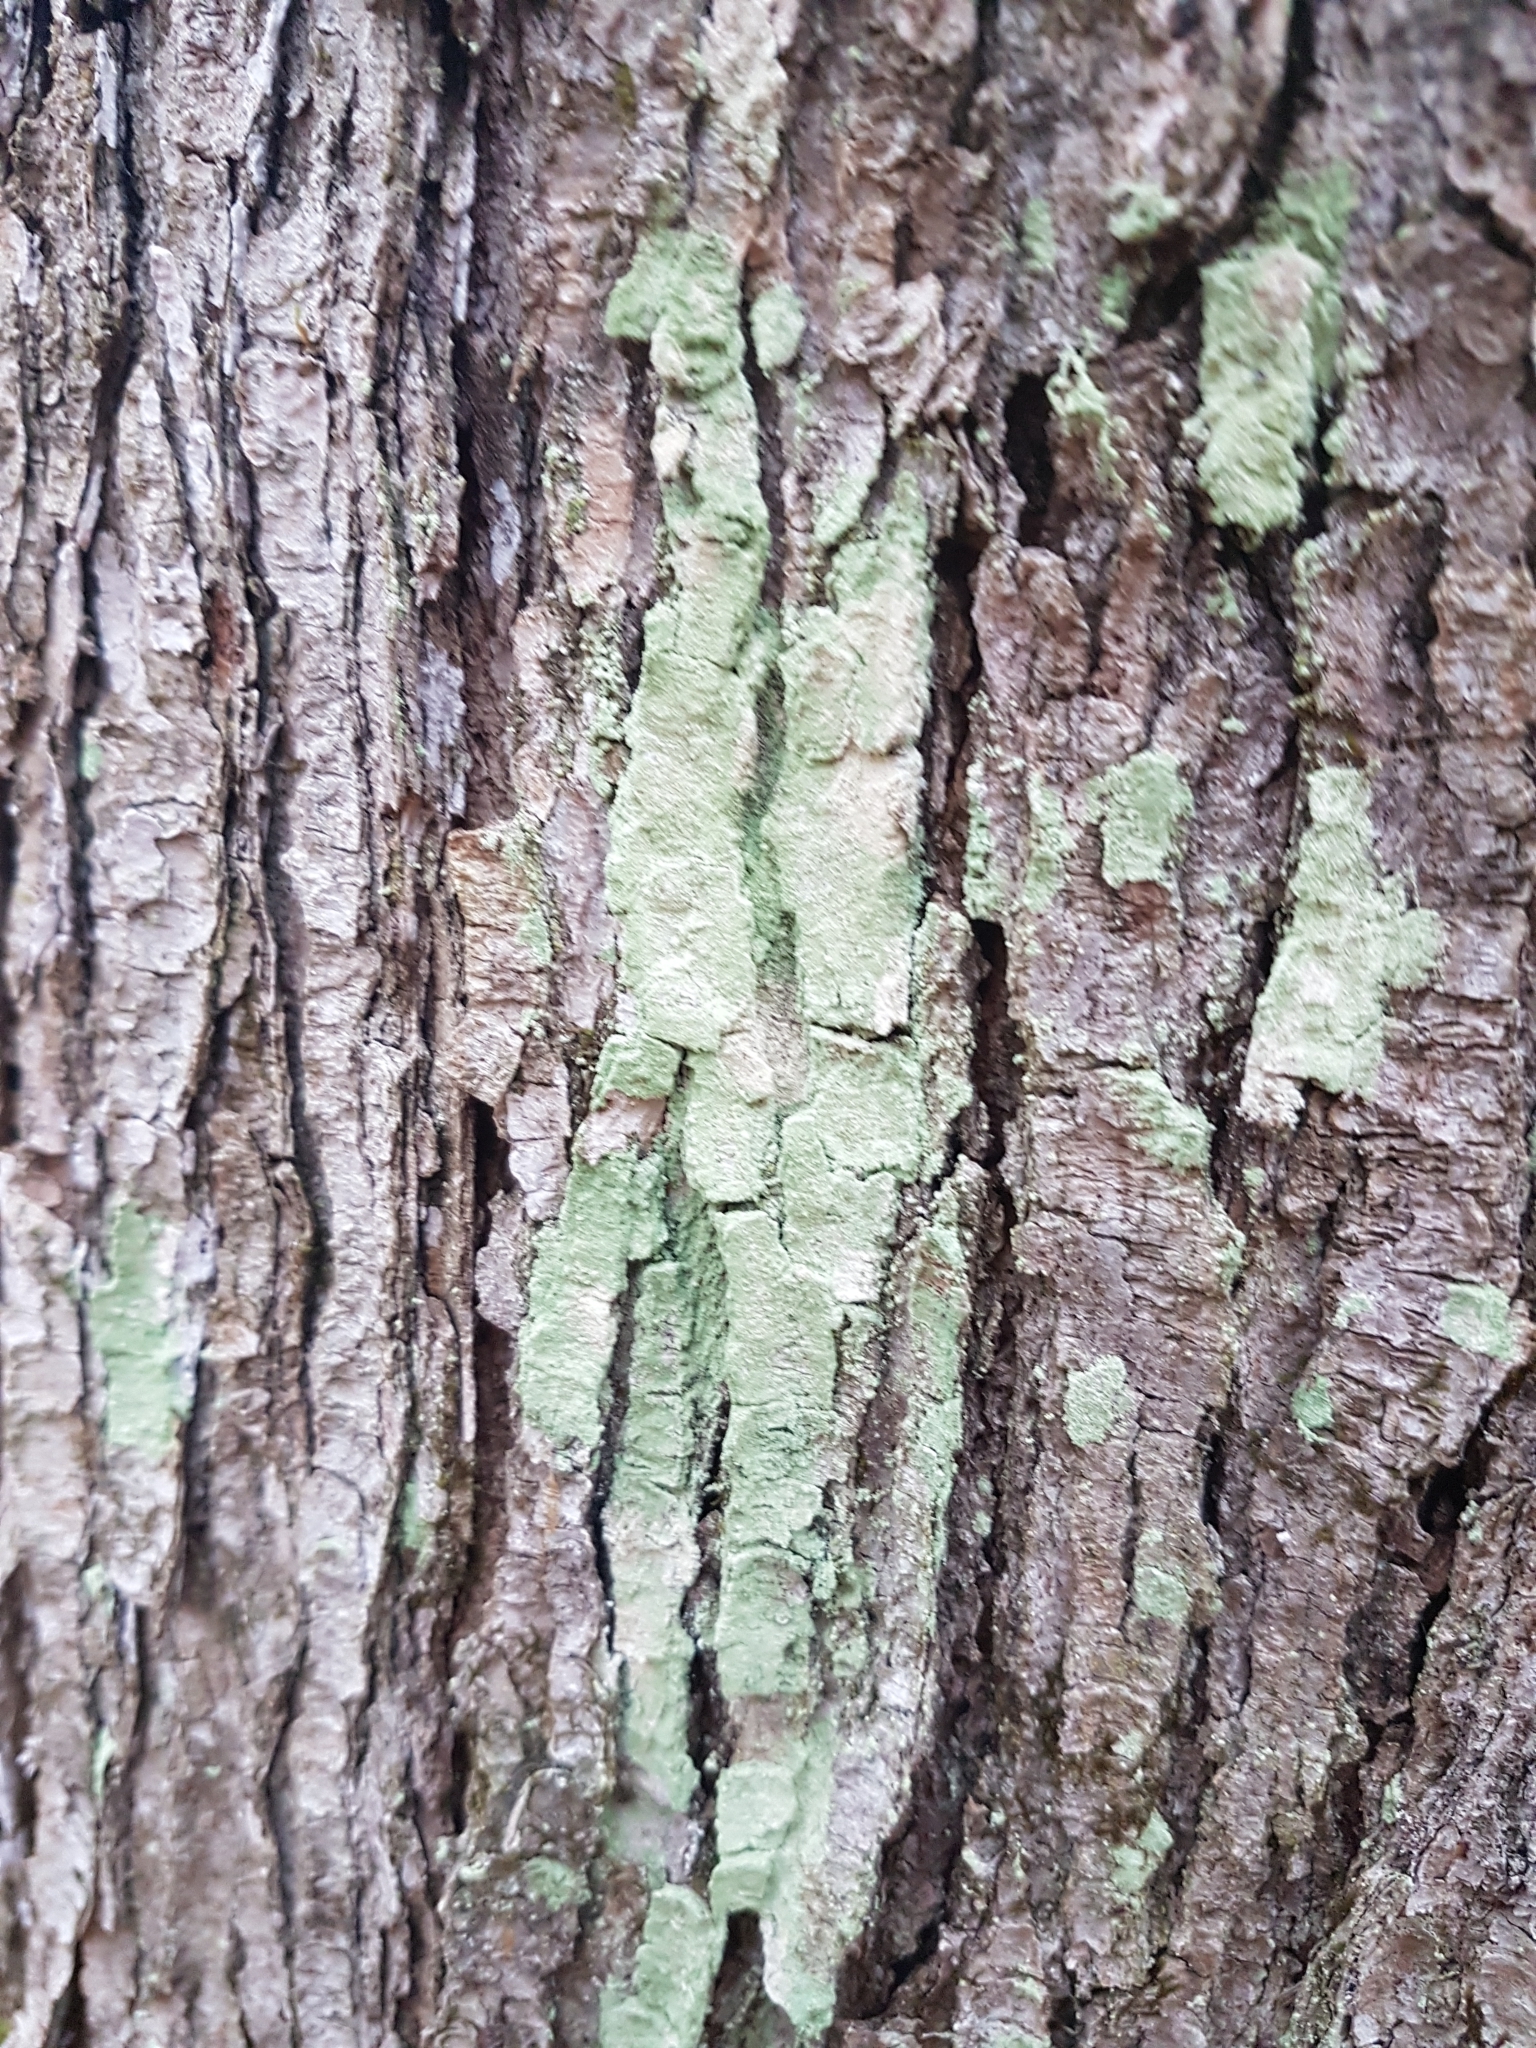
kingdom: Fungi
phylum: Ascomycota
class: Lecanoromycetes
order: Pertusariales
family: Pertusariaceae
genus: Verseghya
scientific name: Verseghya thysanophora
